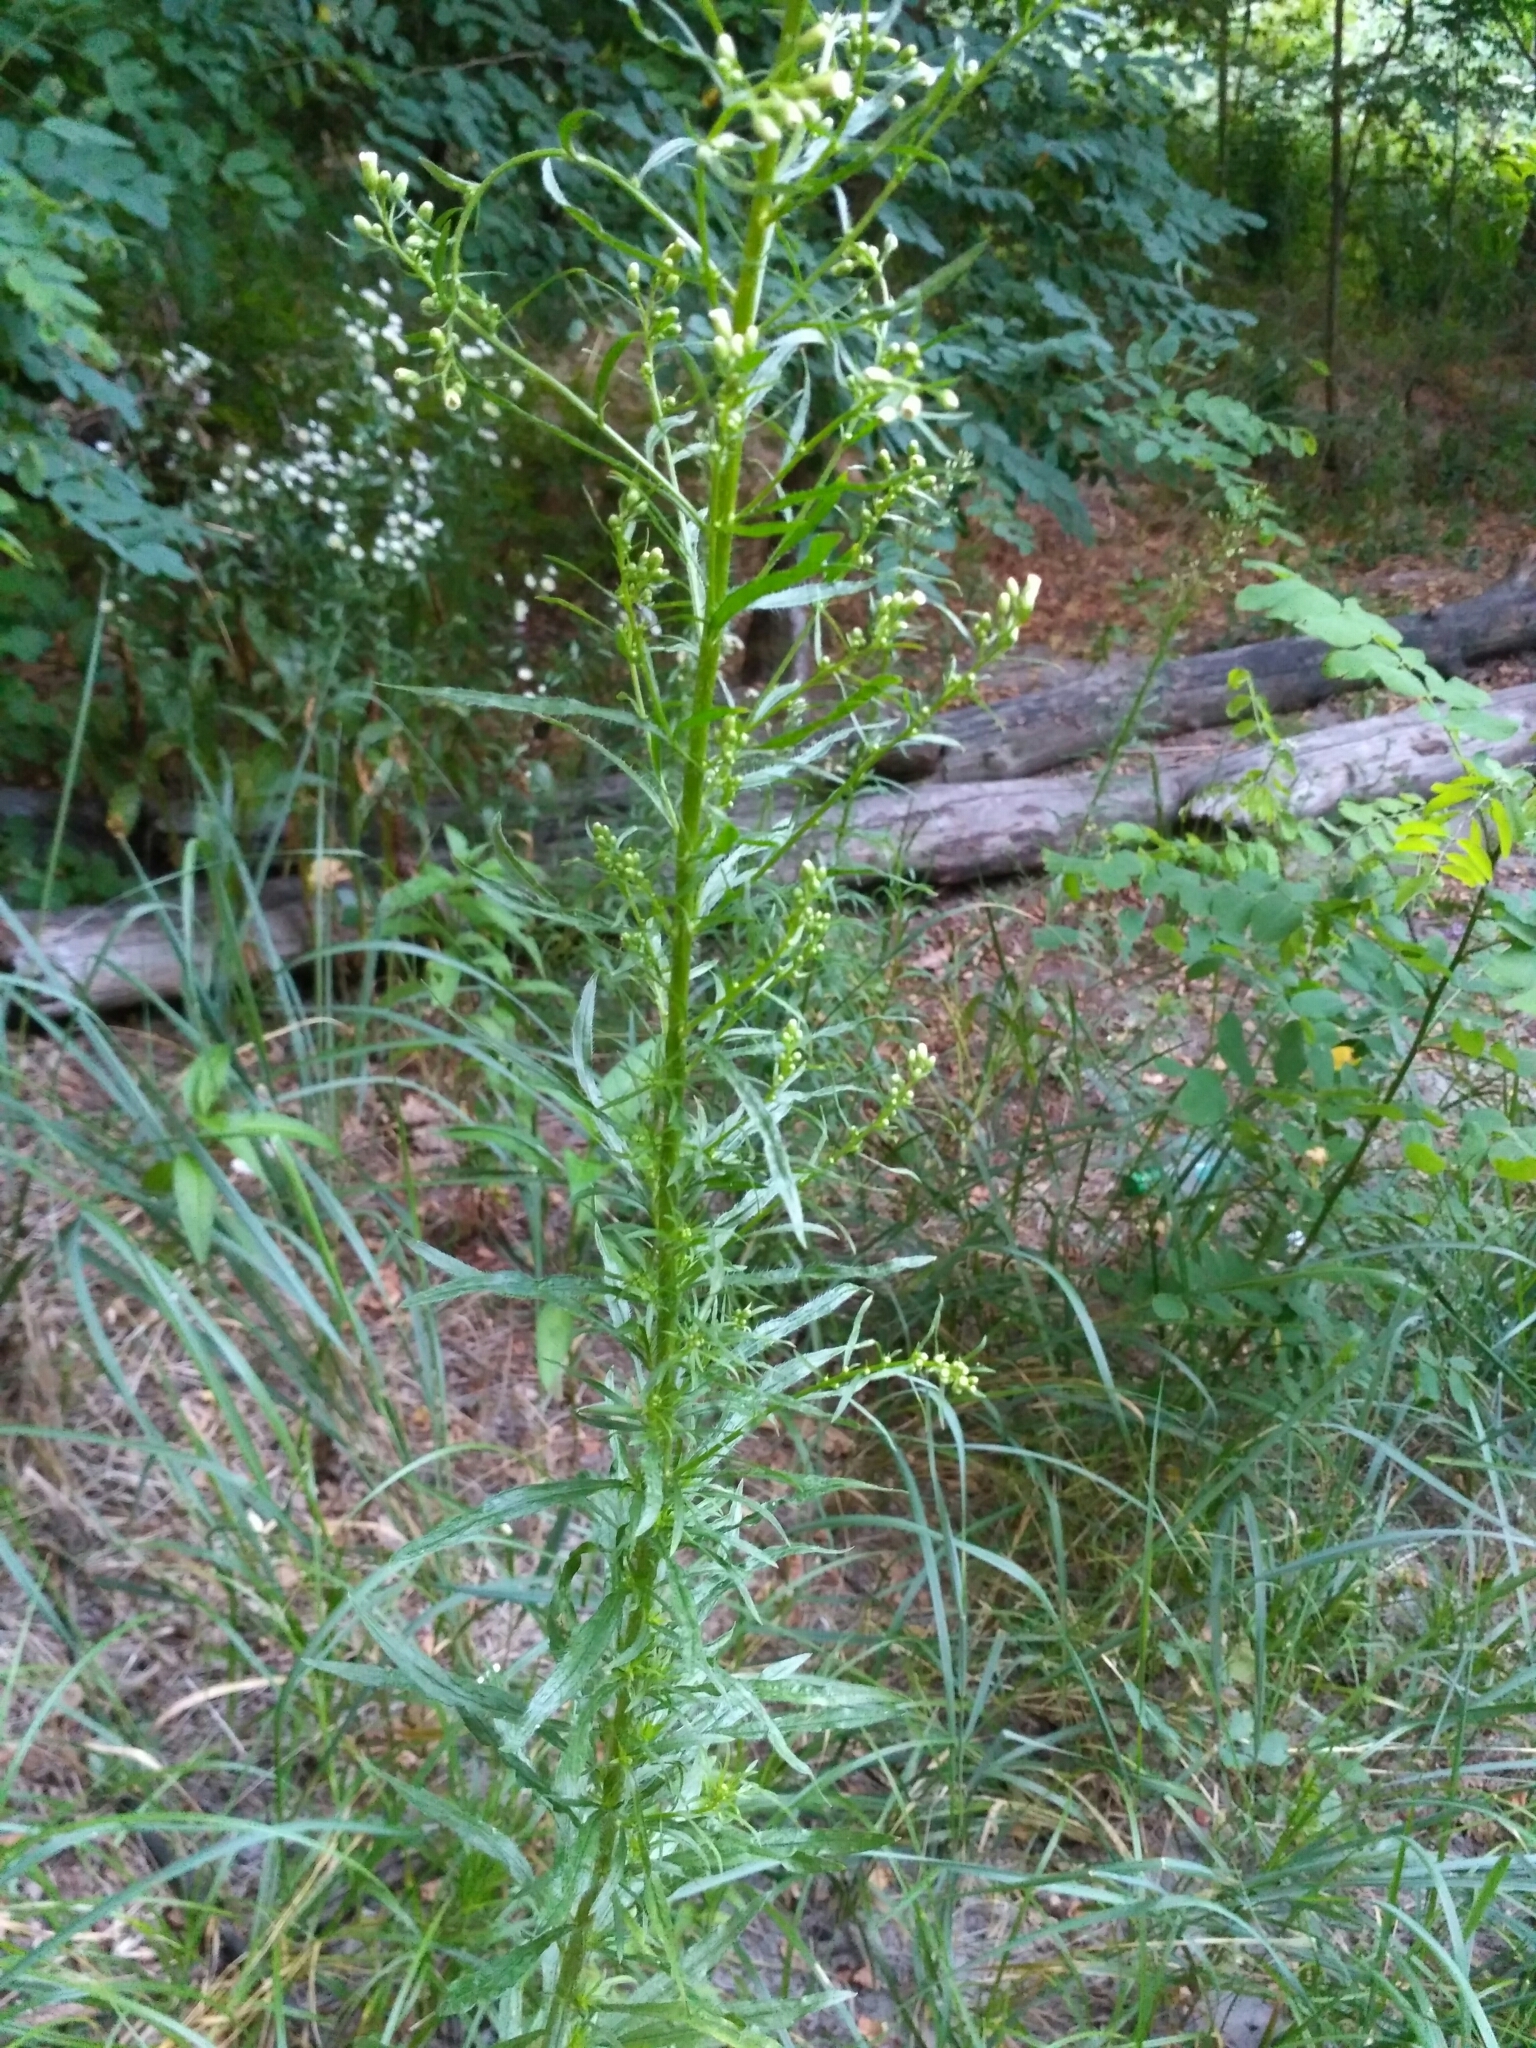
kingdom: Plantae
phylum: Tracheophyta
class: Magnoliopsida
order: Asterales
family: Asteraceae
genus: Erigeron
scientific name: Erigeron canadensis
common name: Canadian fleabane
